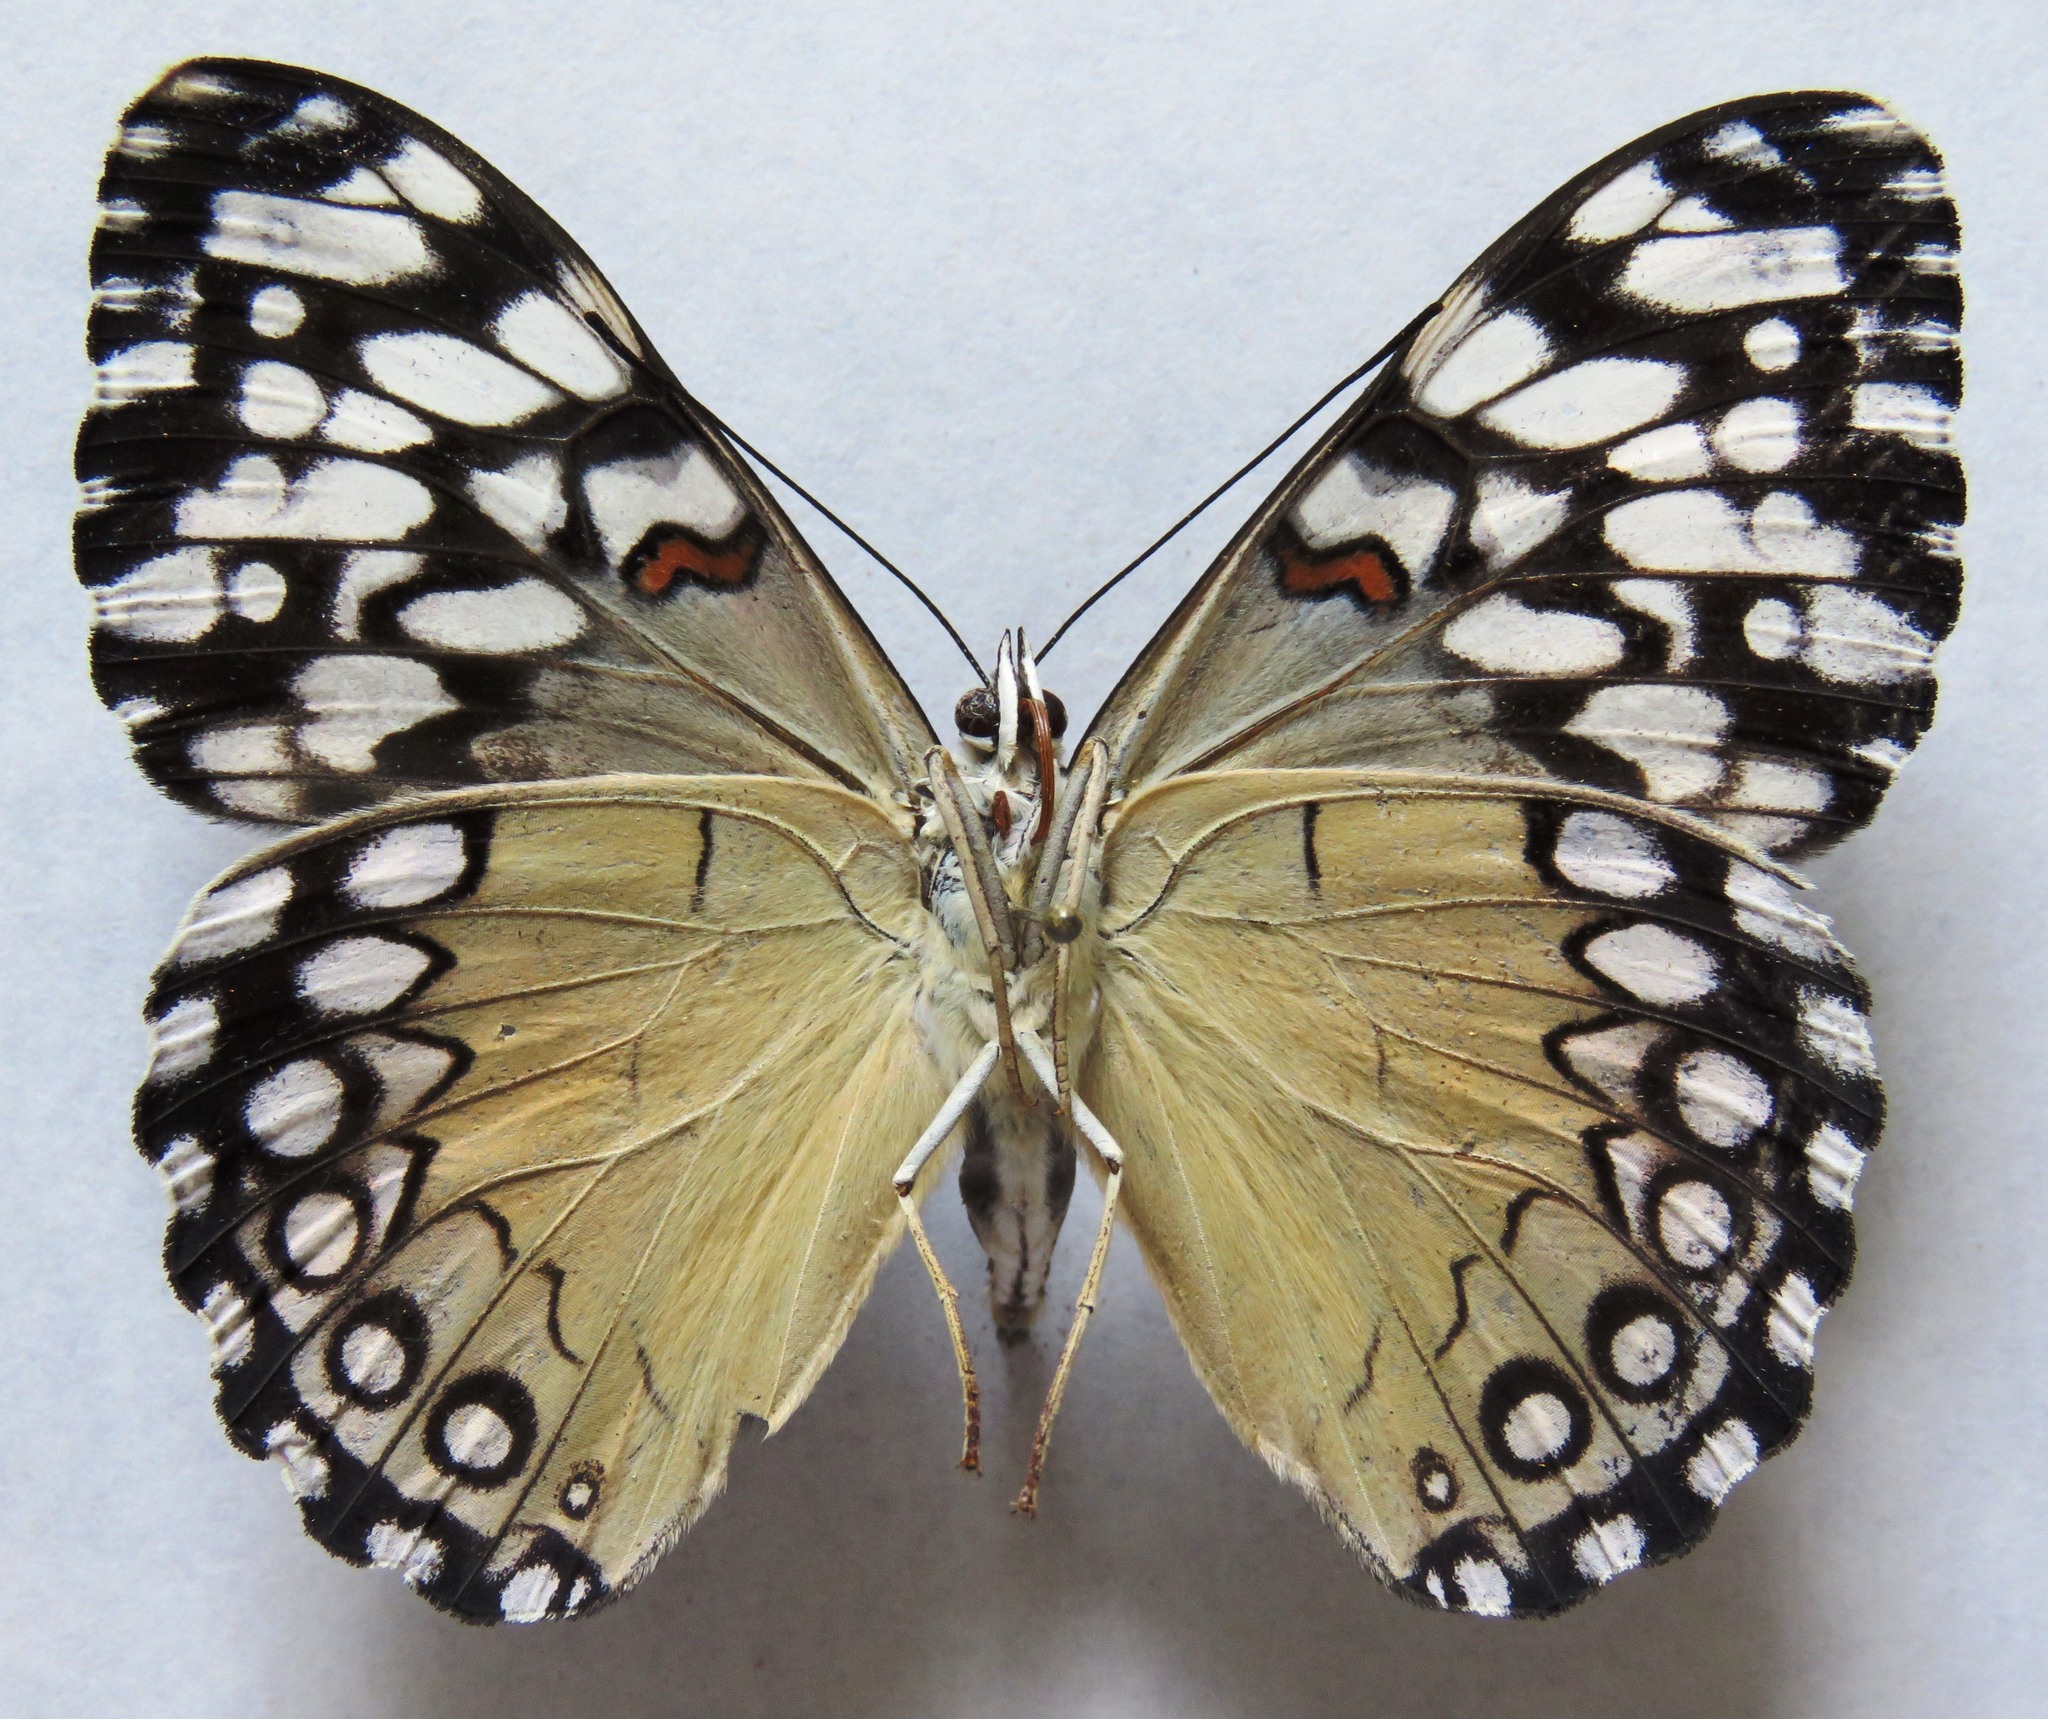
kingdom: Animalia
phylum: Arthropoda
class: Insecta
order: Lepidoptera
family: Nymphalidae
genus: Hamadryas
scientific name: Hamadryas guatemalena
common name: Guatemalan cracker
